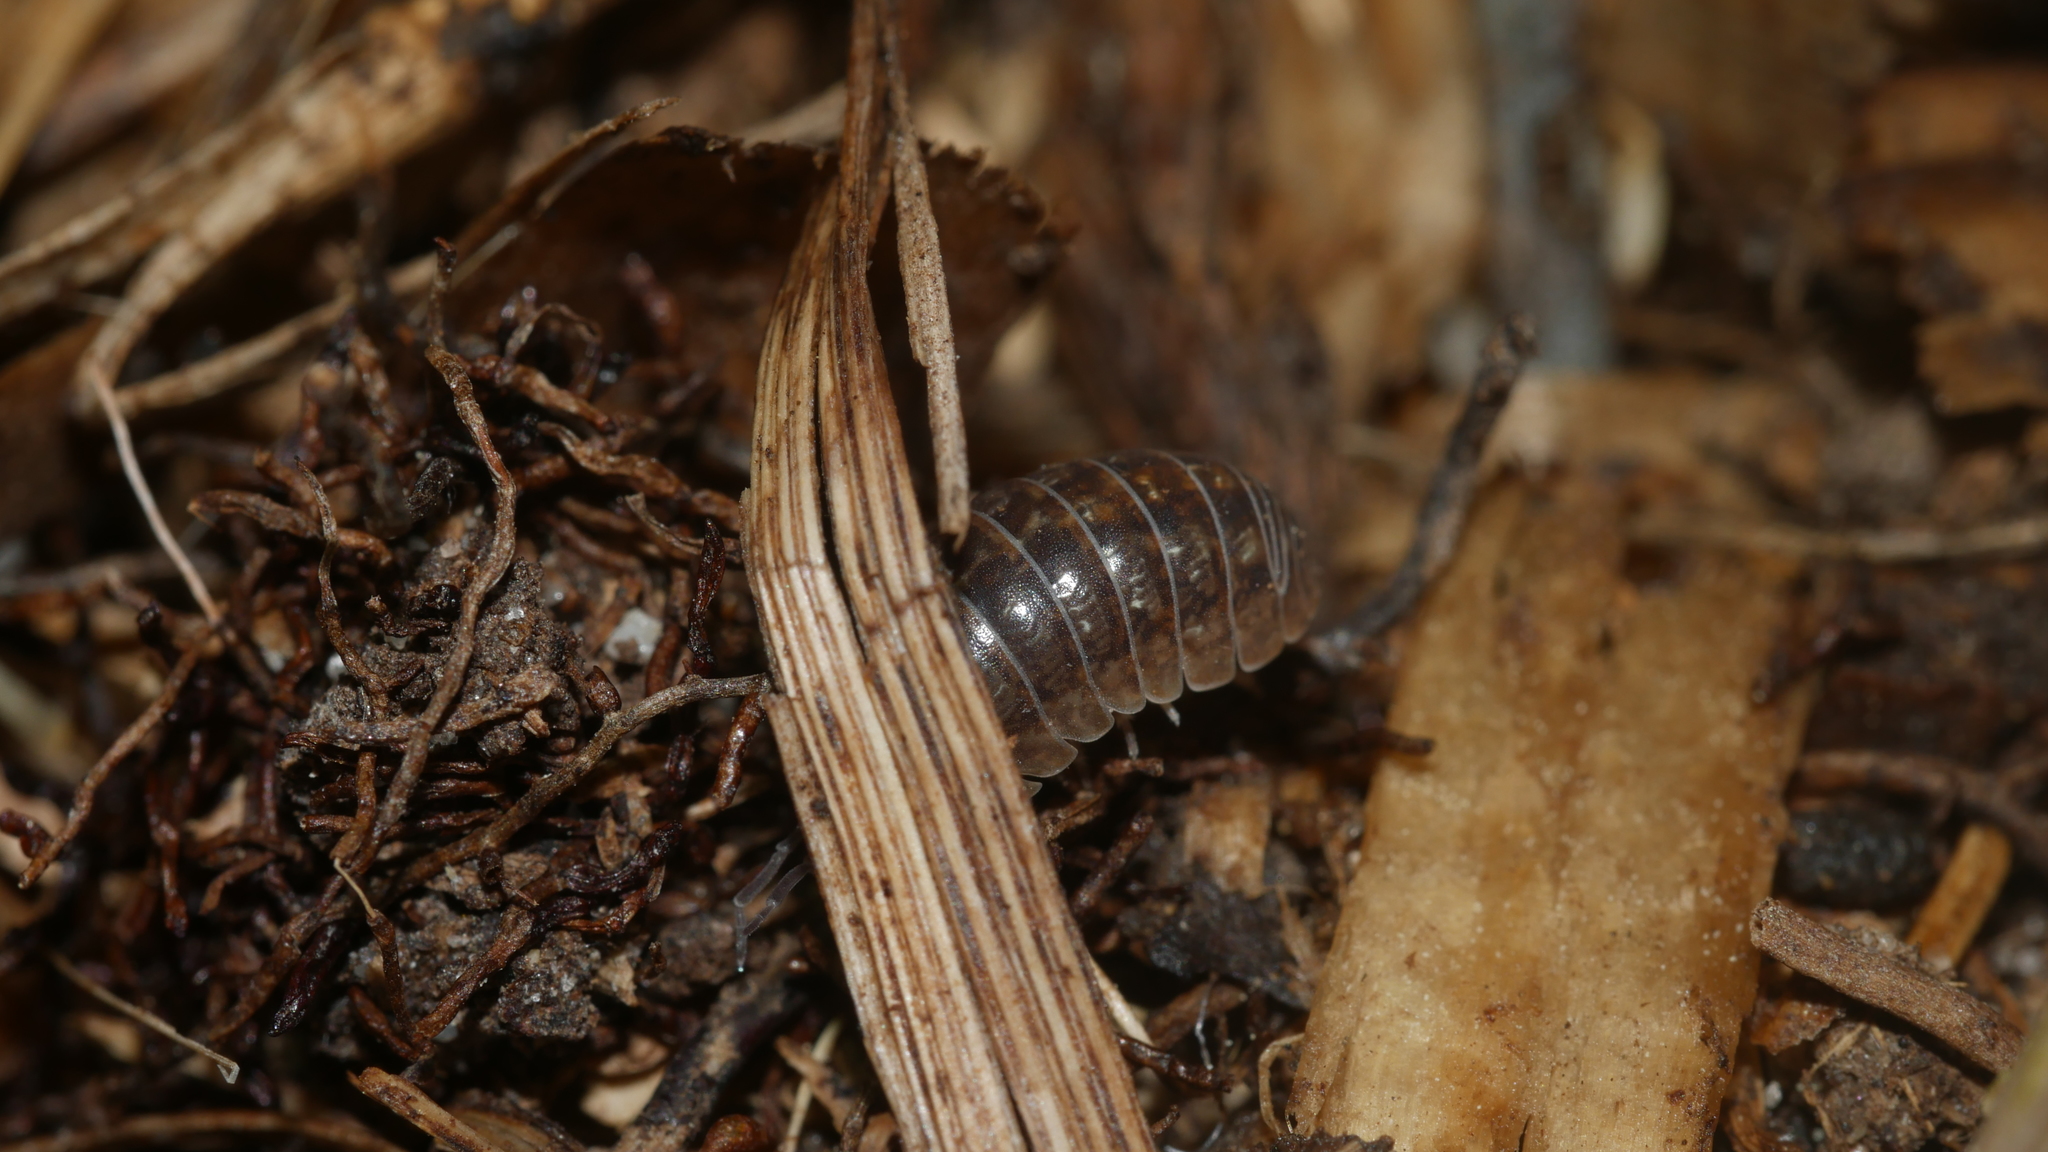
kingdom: Animalia
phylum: Arthropoda
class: Malacostraca
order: Isopoda
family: Armadillidiidae
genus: Armadillidium
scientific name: Armadillidium vulgare
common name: Common pill woodlouse
